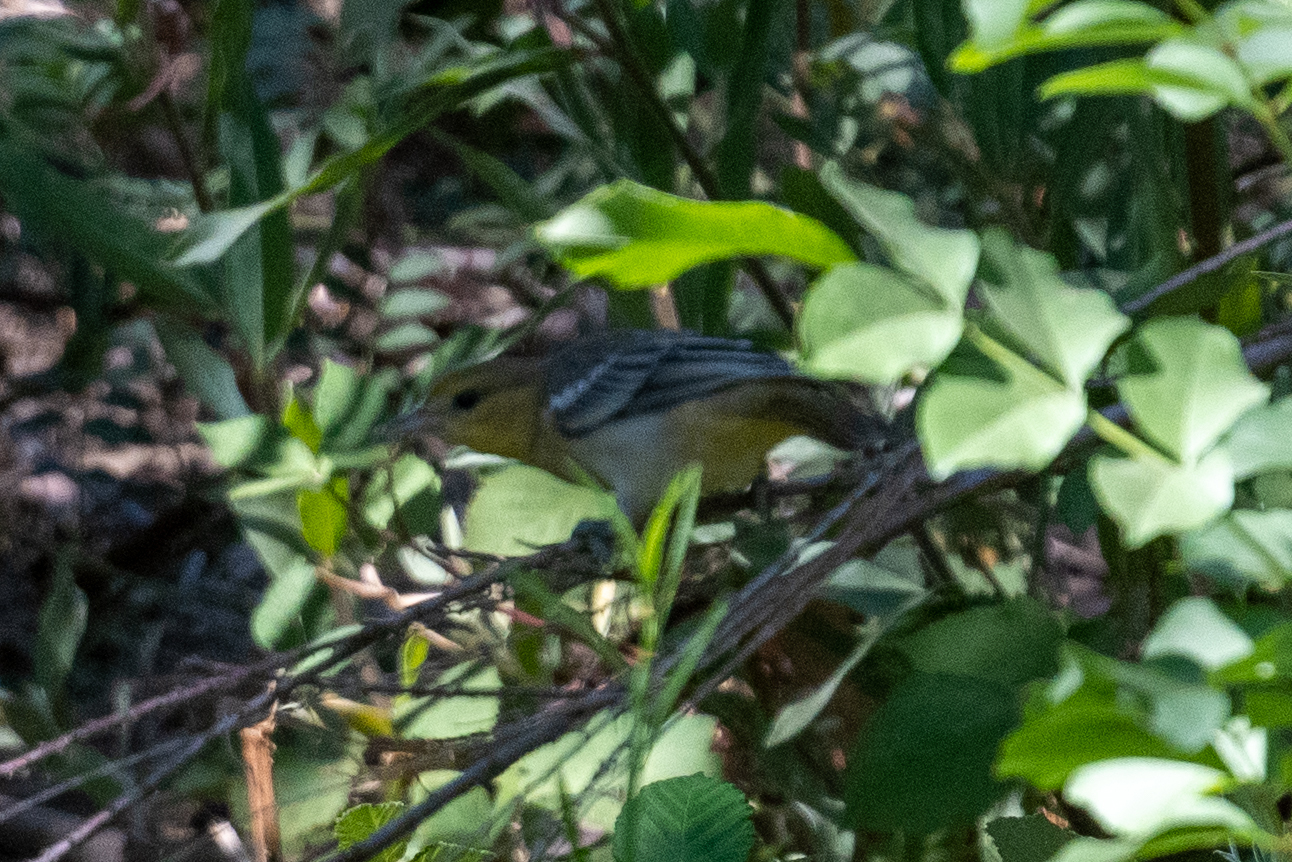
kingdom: Animalia
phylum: Chordata
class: Aves
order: Passeriformes
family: Icteridae
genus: Icterus
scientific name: Icterus bullockii
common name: Bullock's oriole
